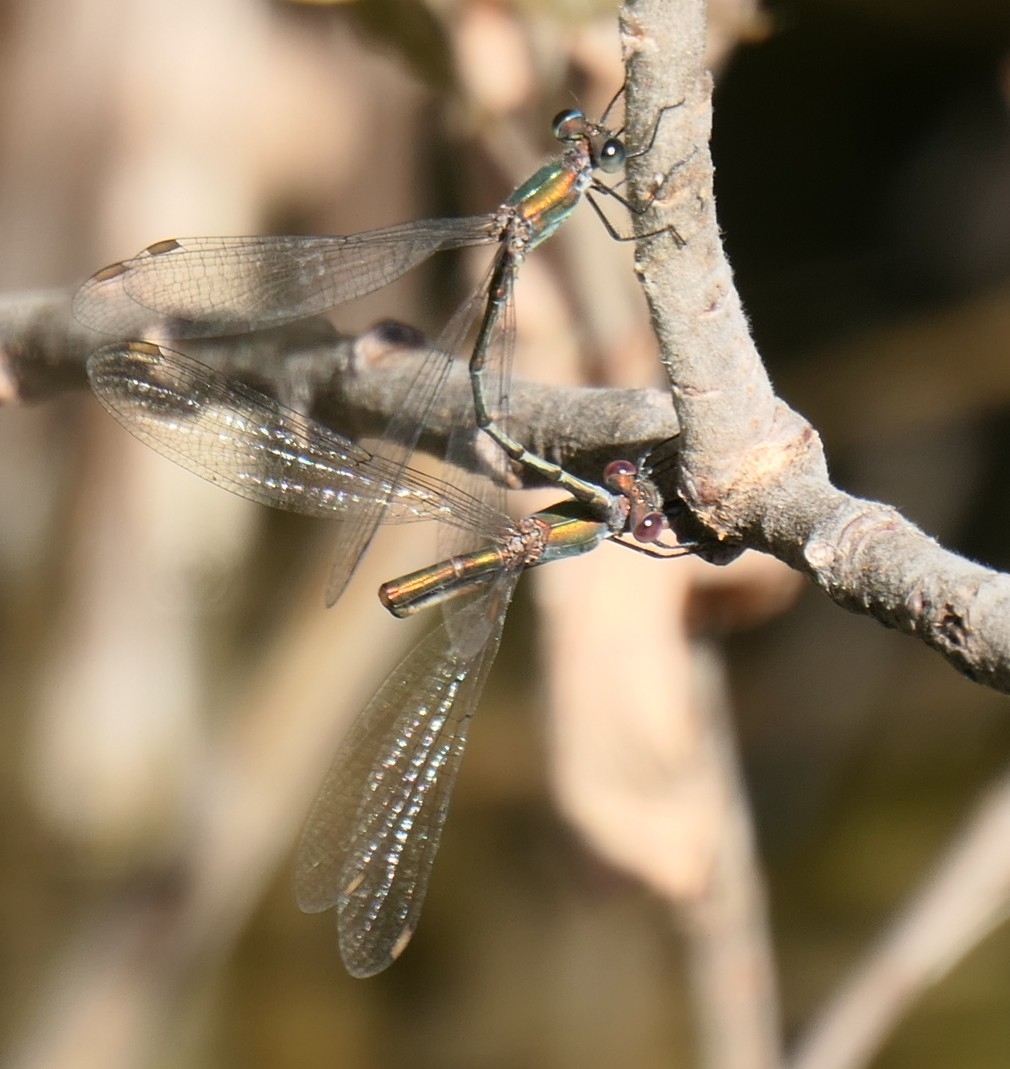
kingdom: Animalia
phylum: Arthropoda
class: Insecta
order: Odonata
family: Lestidae
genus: Chalcolestes
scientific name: Chalcolestes viridis
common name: Green emerald damselfly
